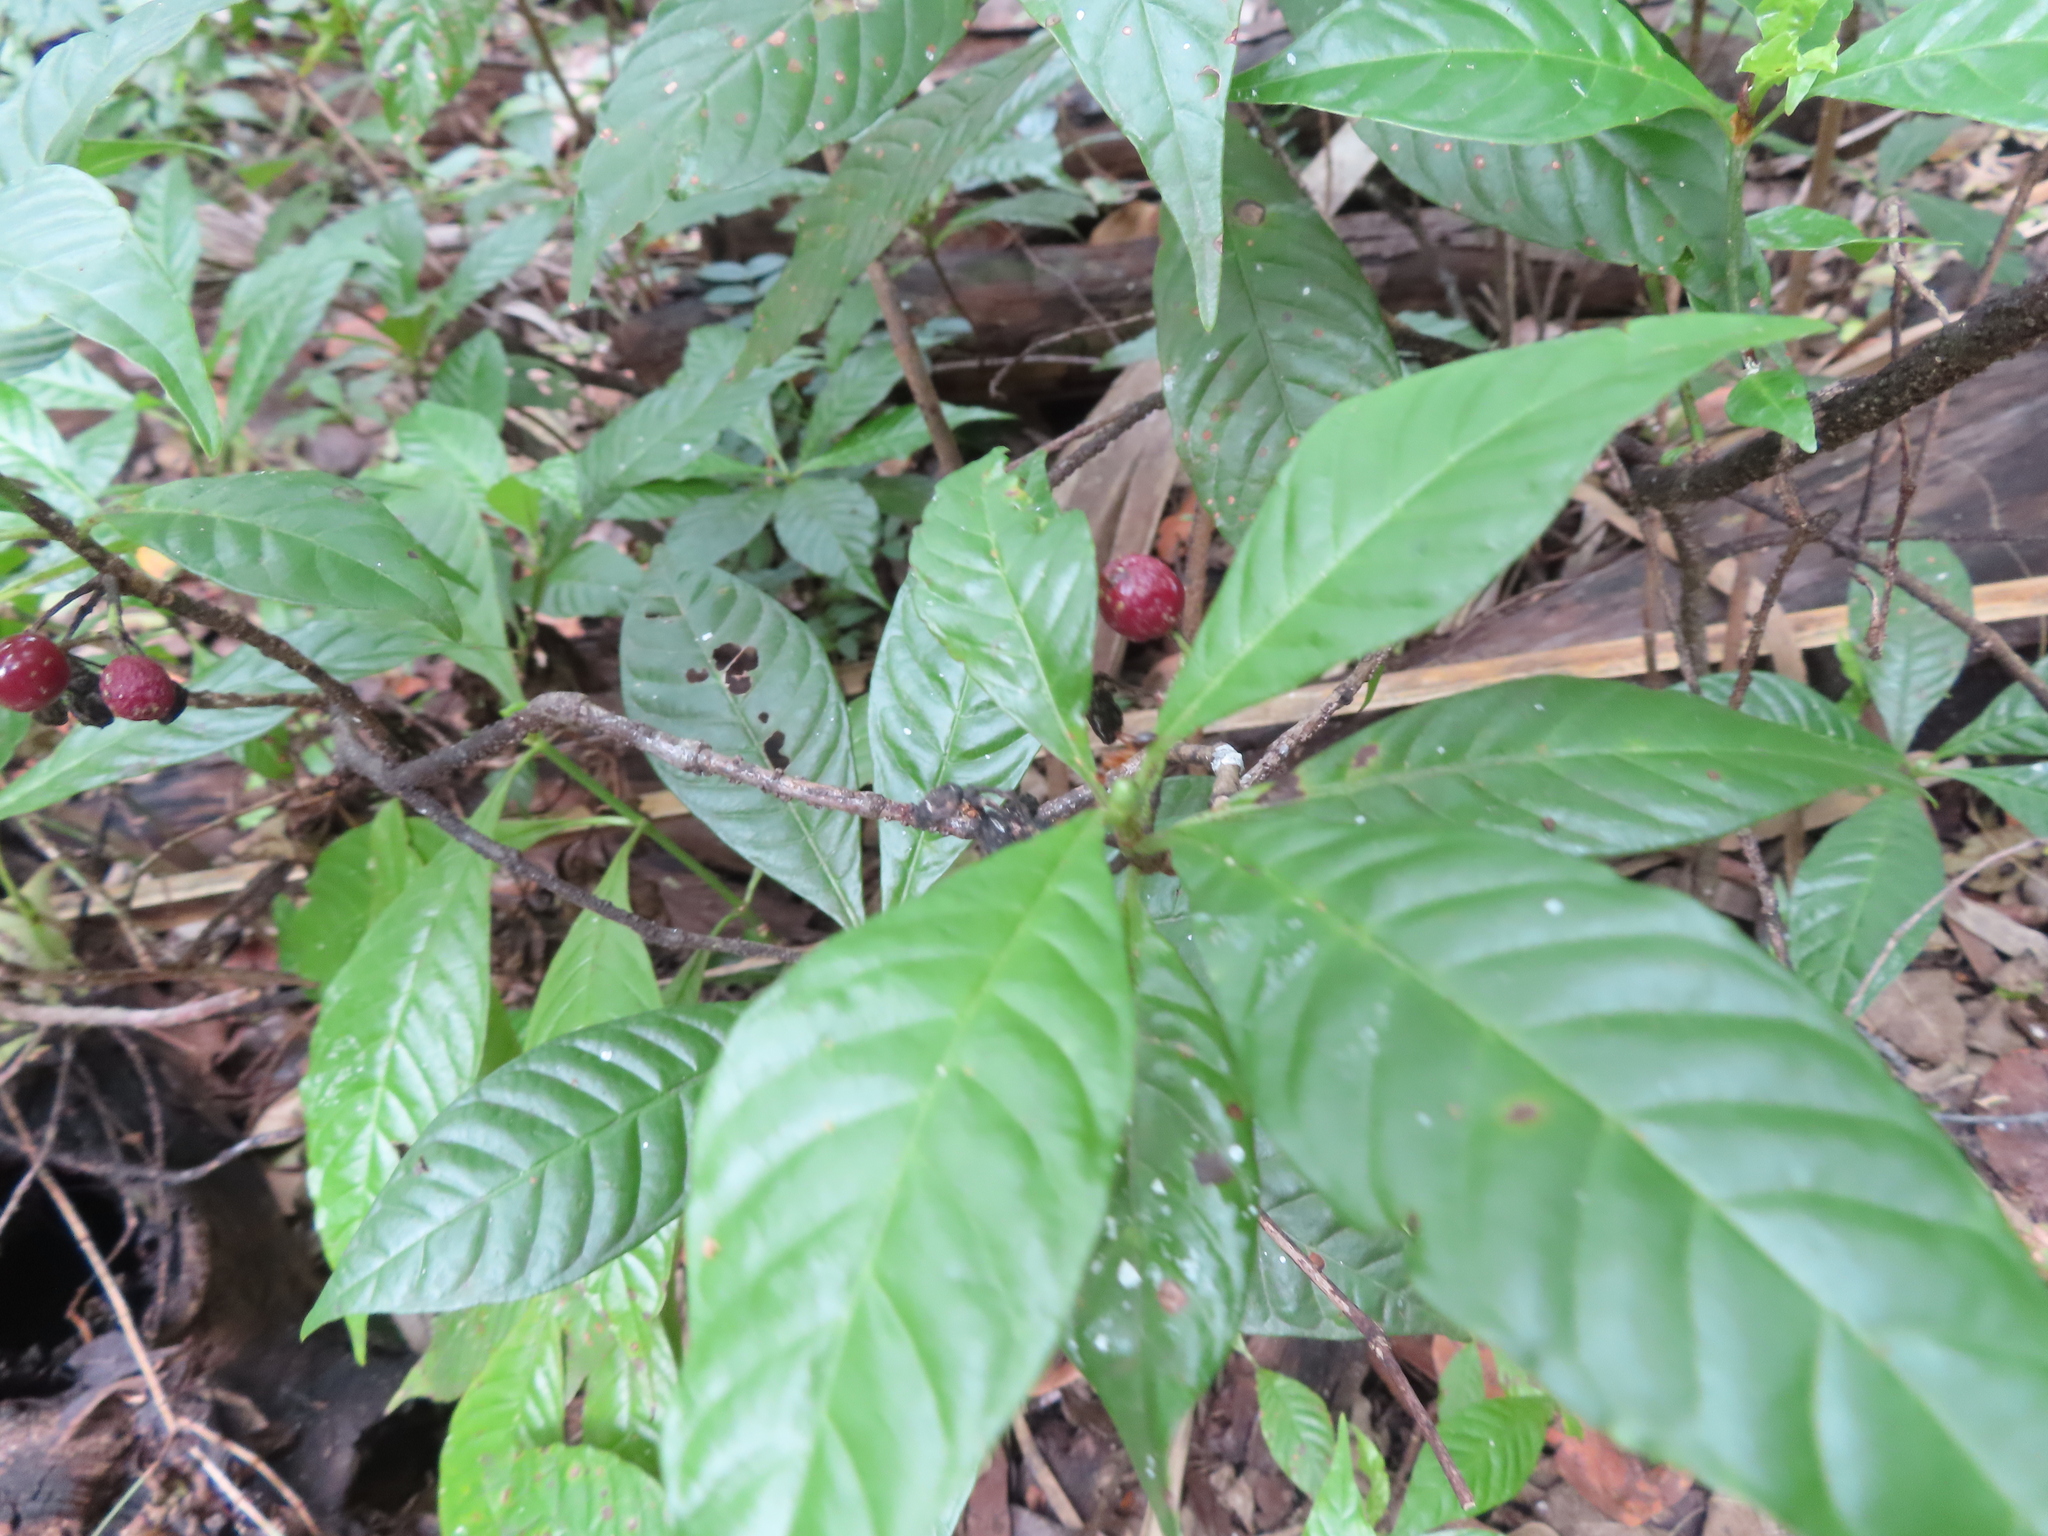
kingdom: Plantae
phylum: Tracheophyta
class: Magnoliopsida
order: Gentianales
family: Rubiaceae
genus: Psychotria
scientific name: Psychotria nervosa
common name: Bastard cankerberry
